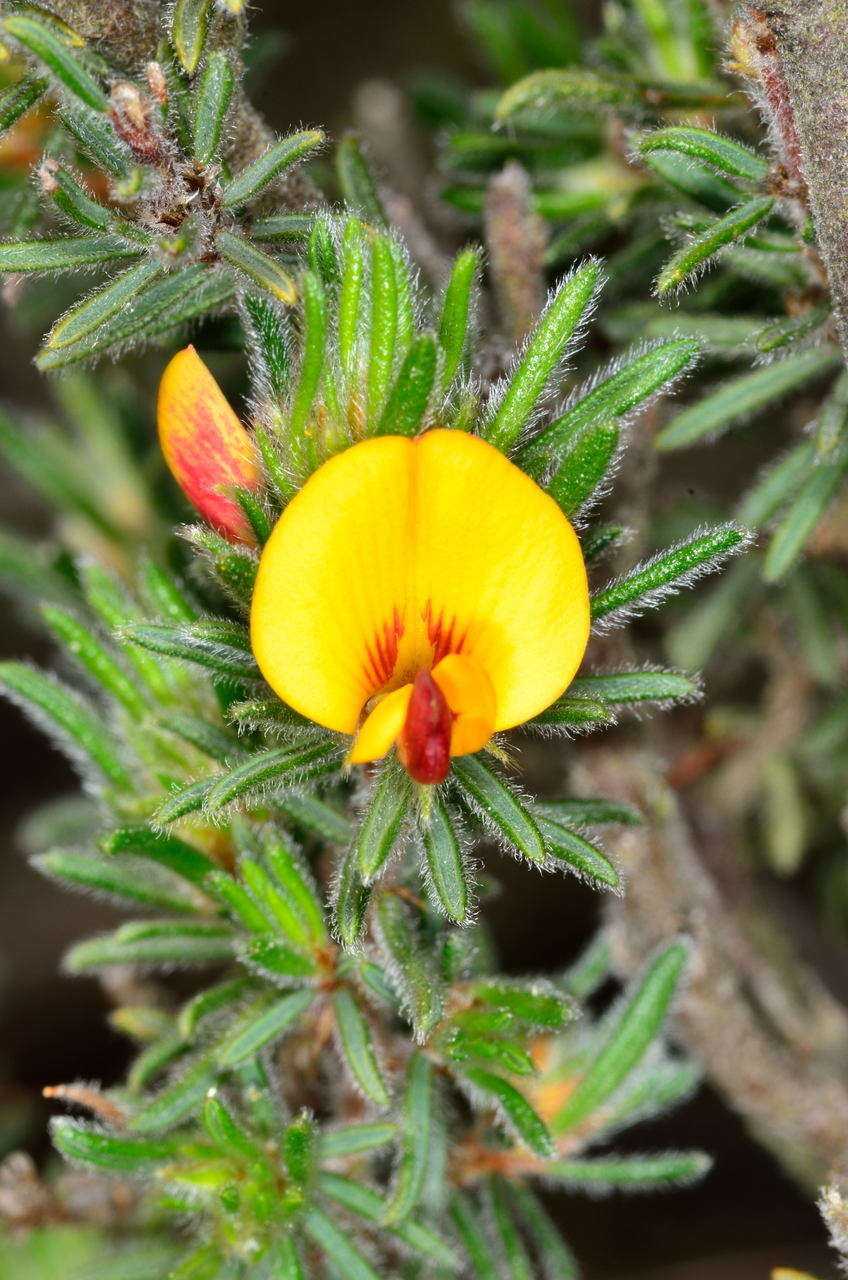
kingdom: Plantae
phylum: Tracheophyta
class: Magnoliopsida
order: Fabales
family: Fabaceae
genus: Pultenaea
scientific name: Pultenaea daltonii
